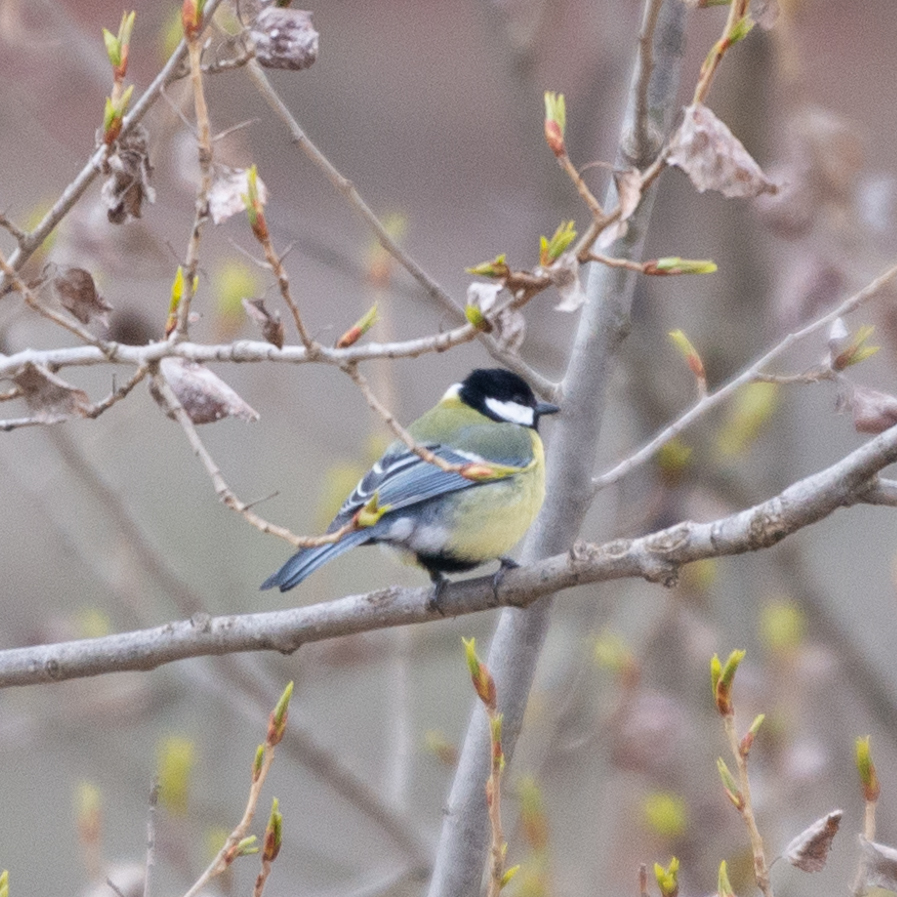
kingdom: Animalia
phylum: Chordata
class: Aves
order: Passeriformes
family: Paridae
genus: Parus
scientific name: Parus major
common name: Great tit
